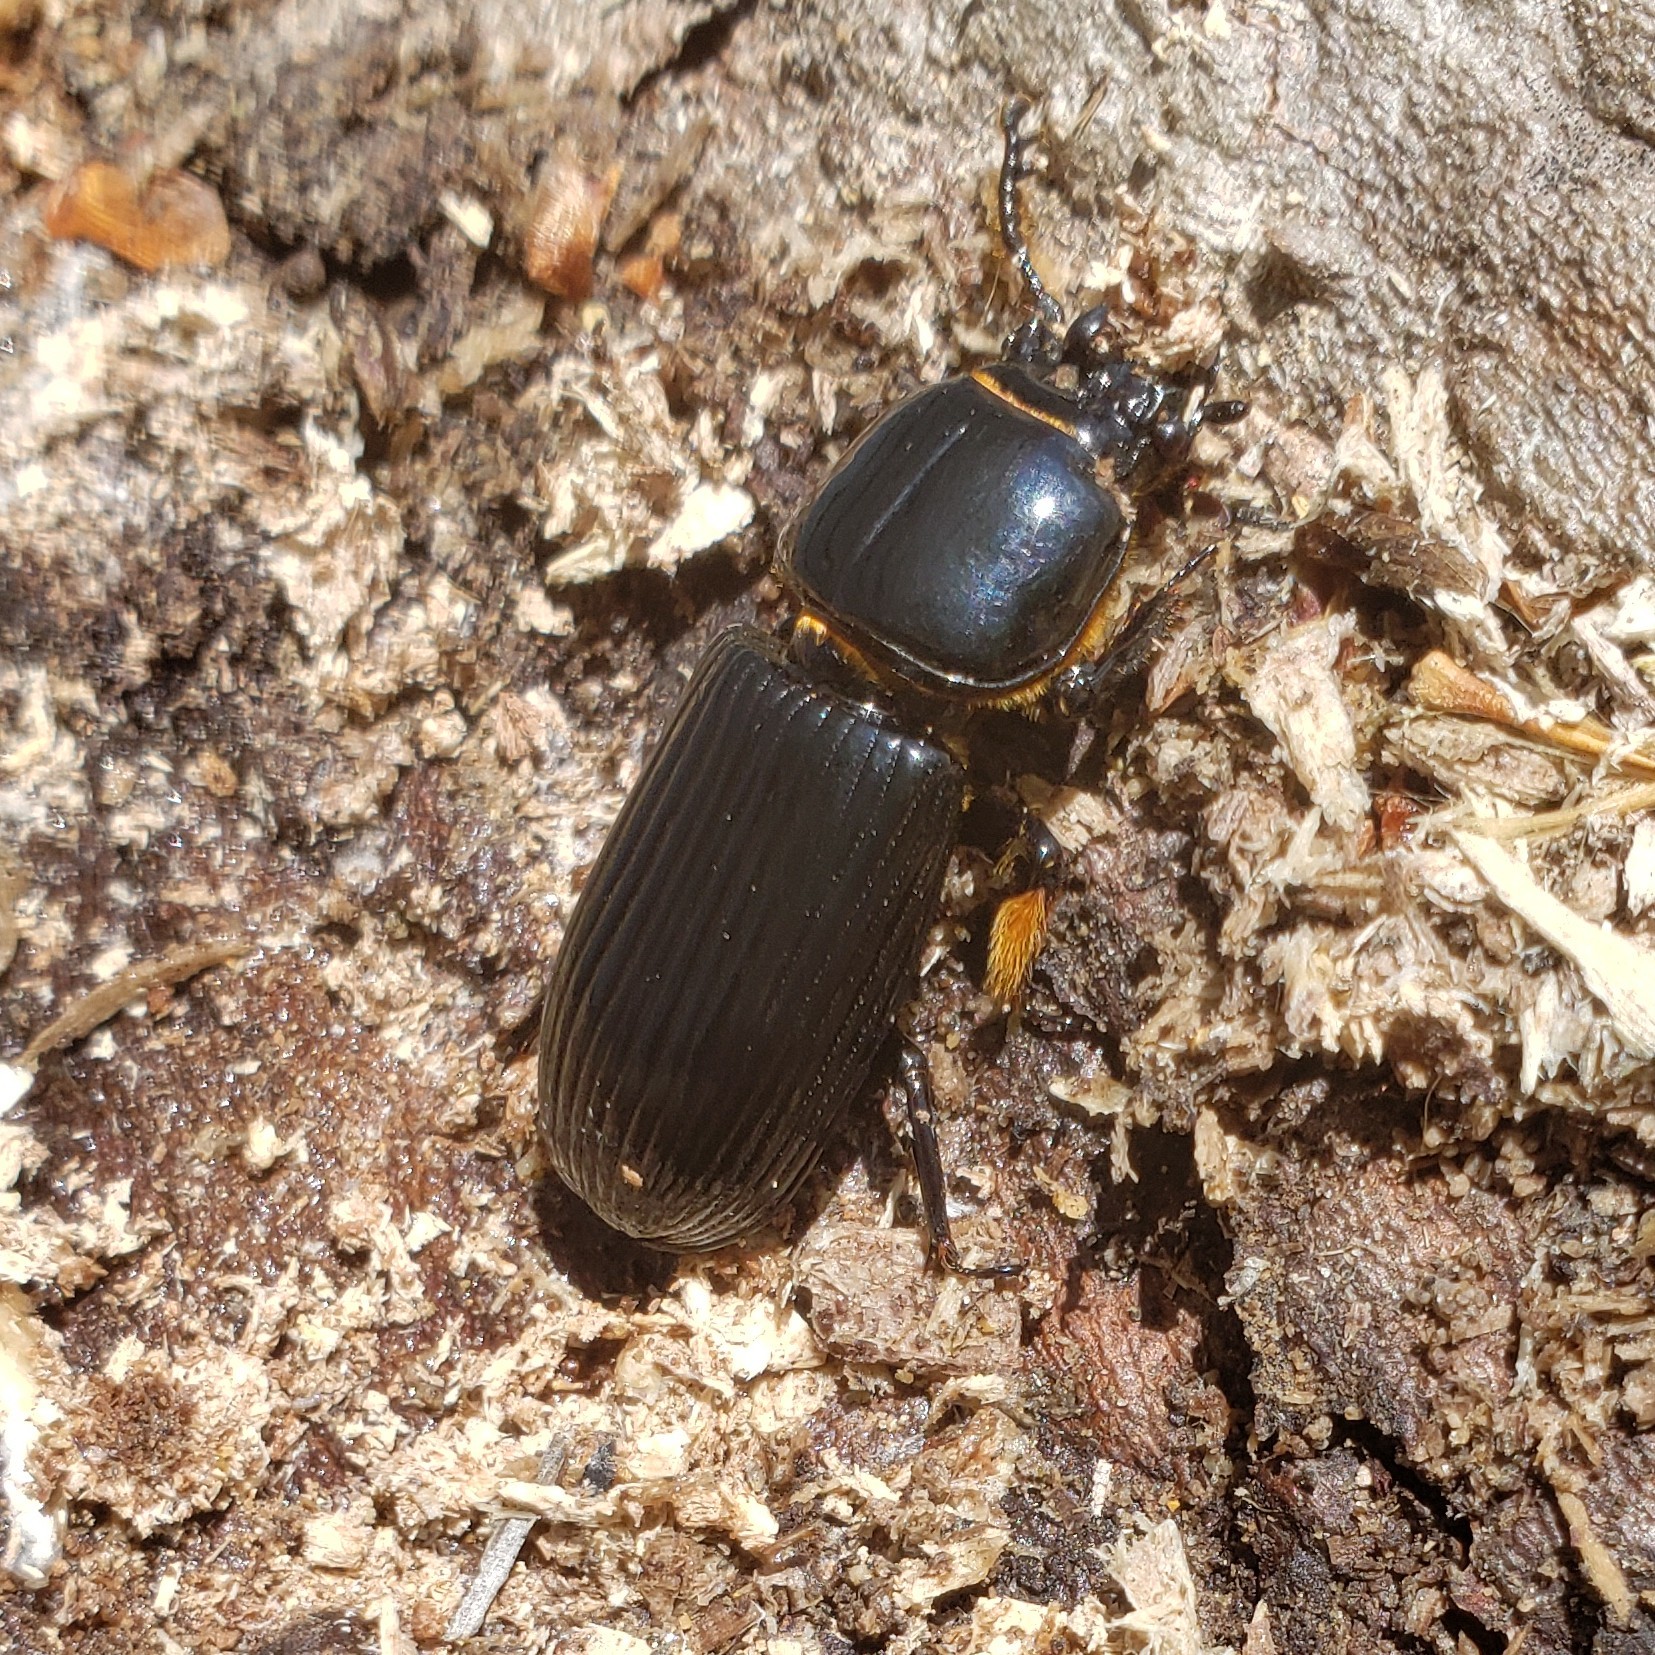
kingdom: Animalia
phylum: Arthropoda
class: Insecta
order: Coleoptera
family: Passalidae
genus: Odontotaenius
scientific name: Odontotaenius disjunctus
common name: Patent leather beetle
